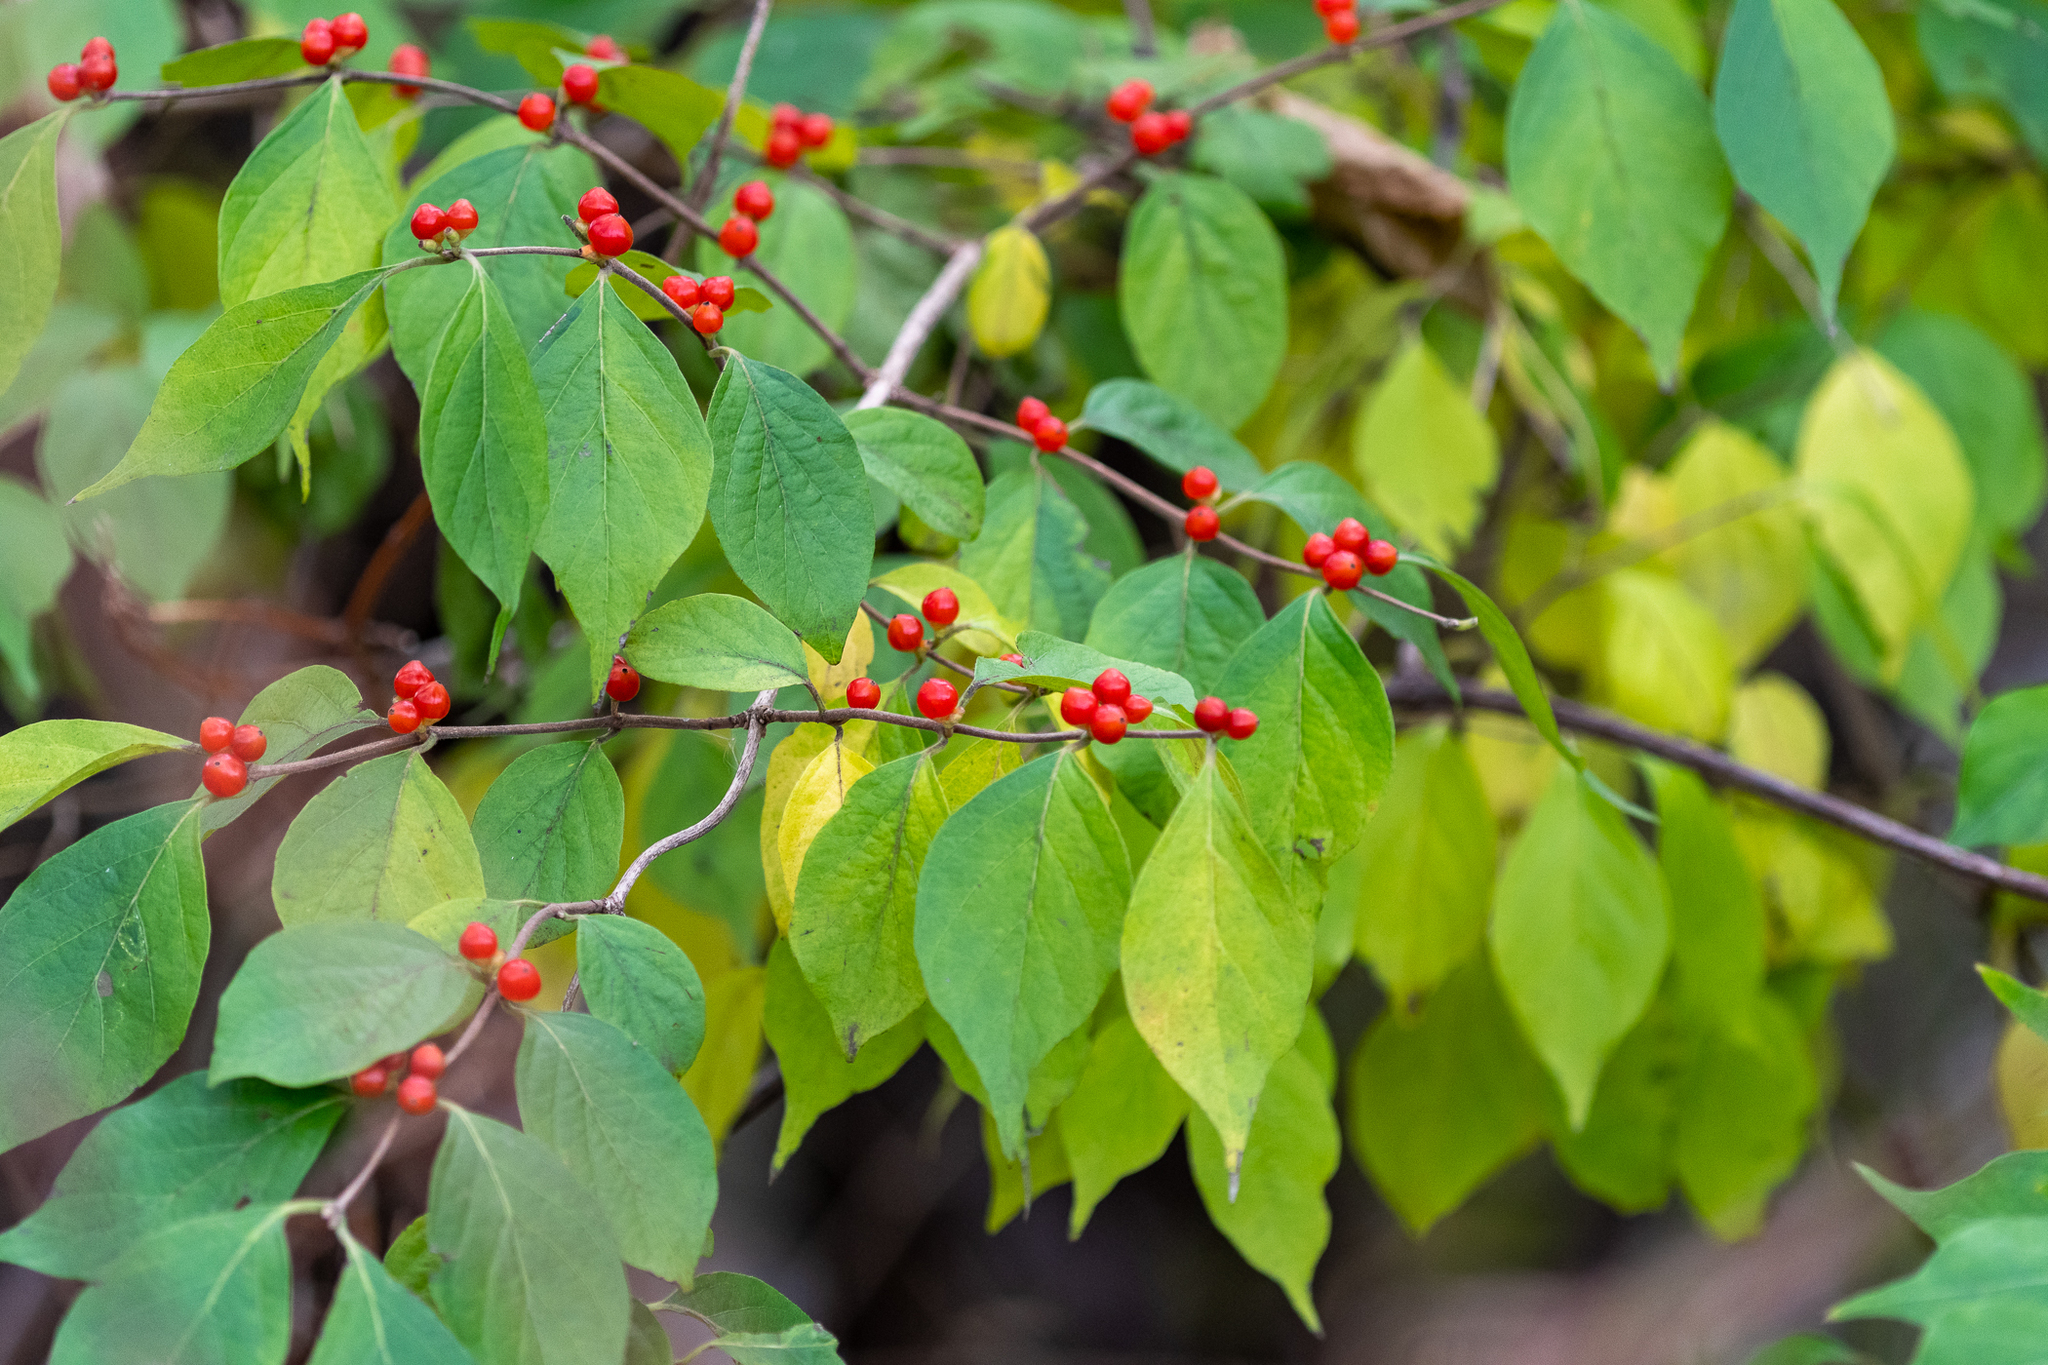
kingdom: Plantae
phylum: Tracheophyta
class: Magnoliopsida
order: Dipsacales
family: Caprifoliaceae
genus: Lonicera
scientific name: Lonicera maackii
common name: Amur honeysuckle
